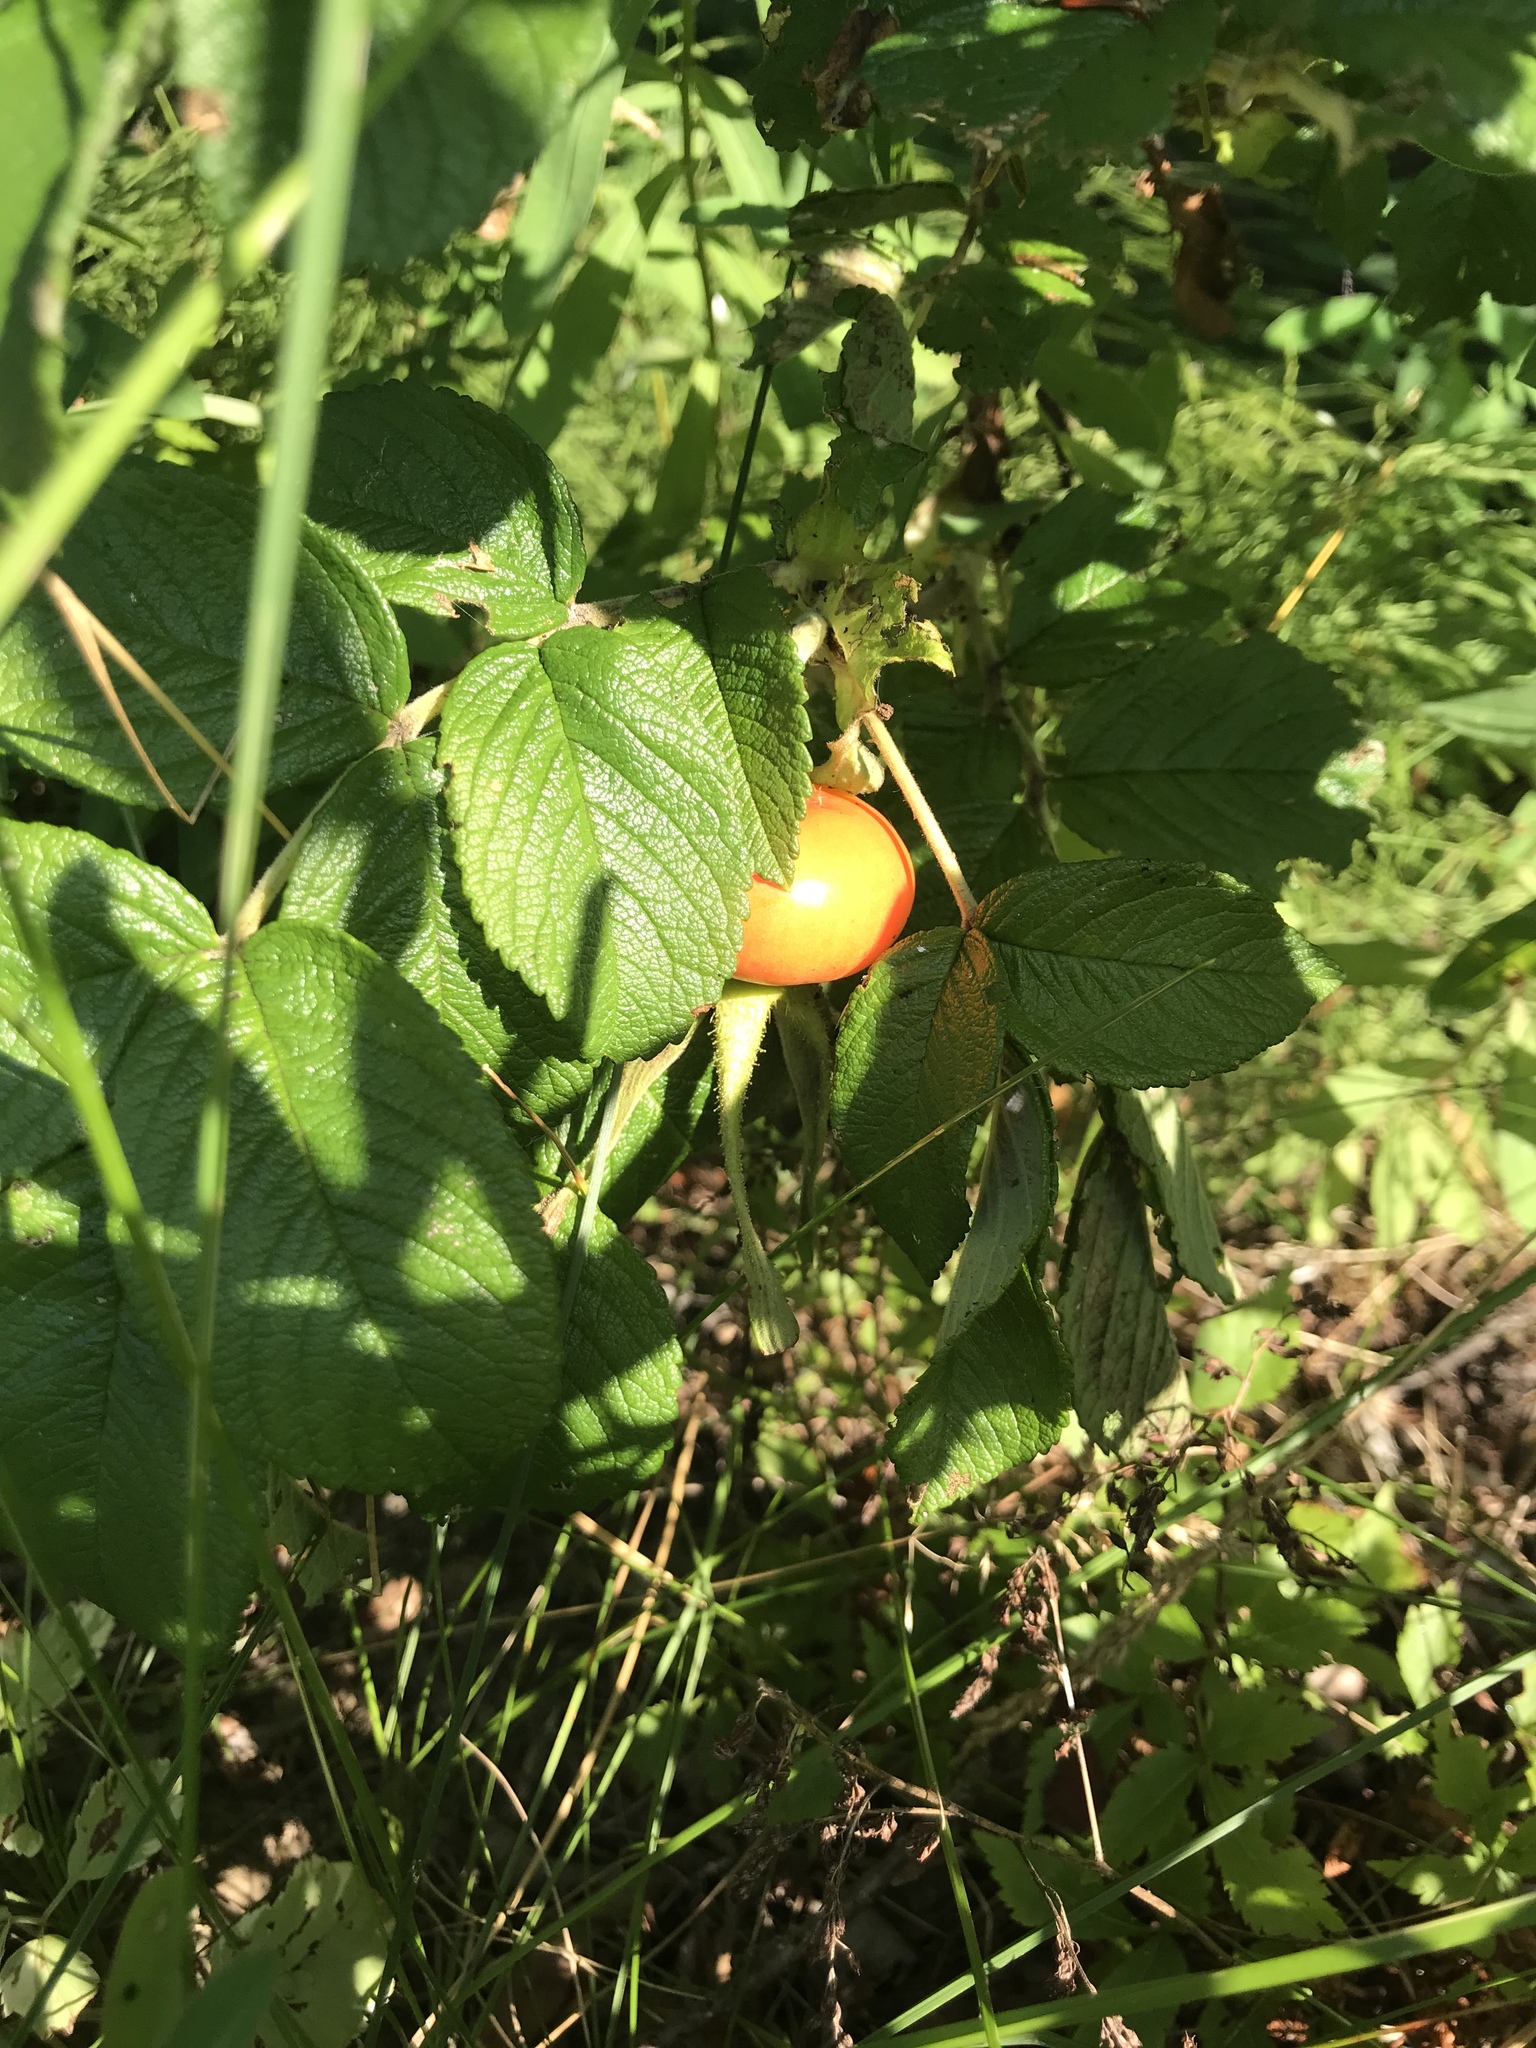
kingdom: Plantae
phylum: Tracheophyta
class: Magnoliopsida
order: Rosales
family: Rosaceae
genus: Rosa
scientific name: Rosa rugosa
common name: Japanese rose
